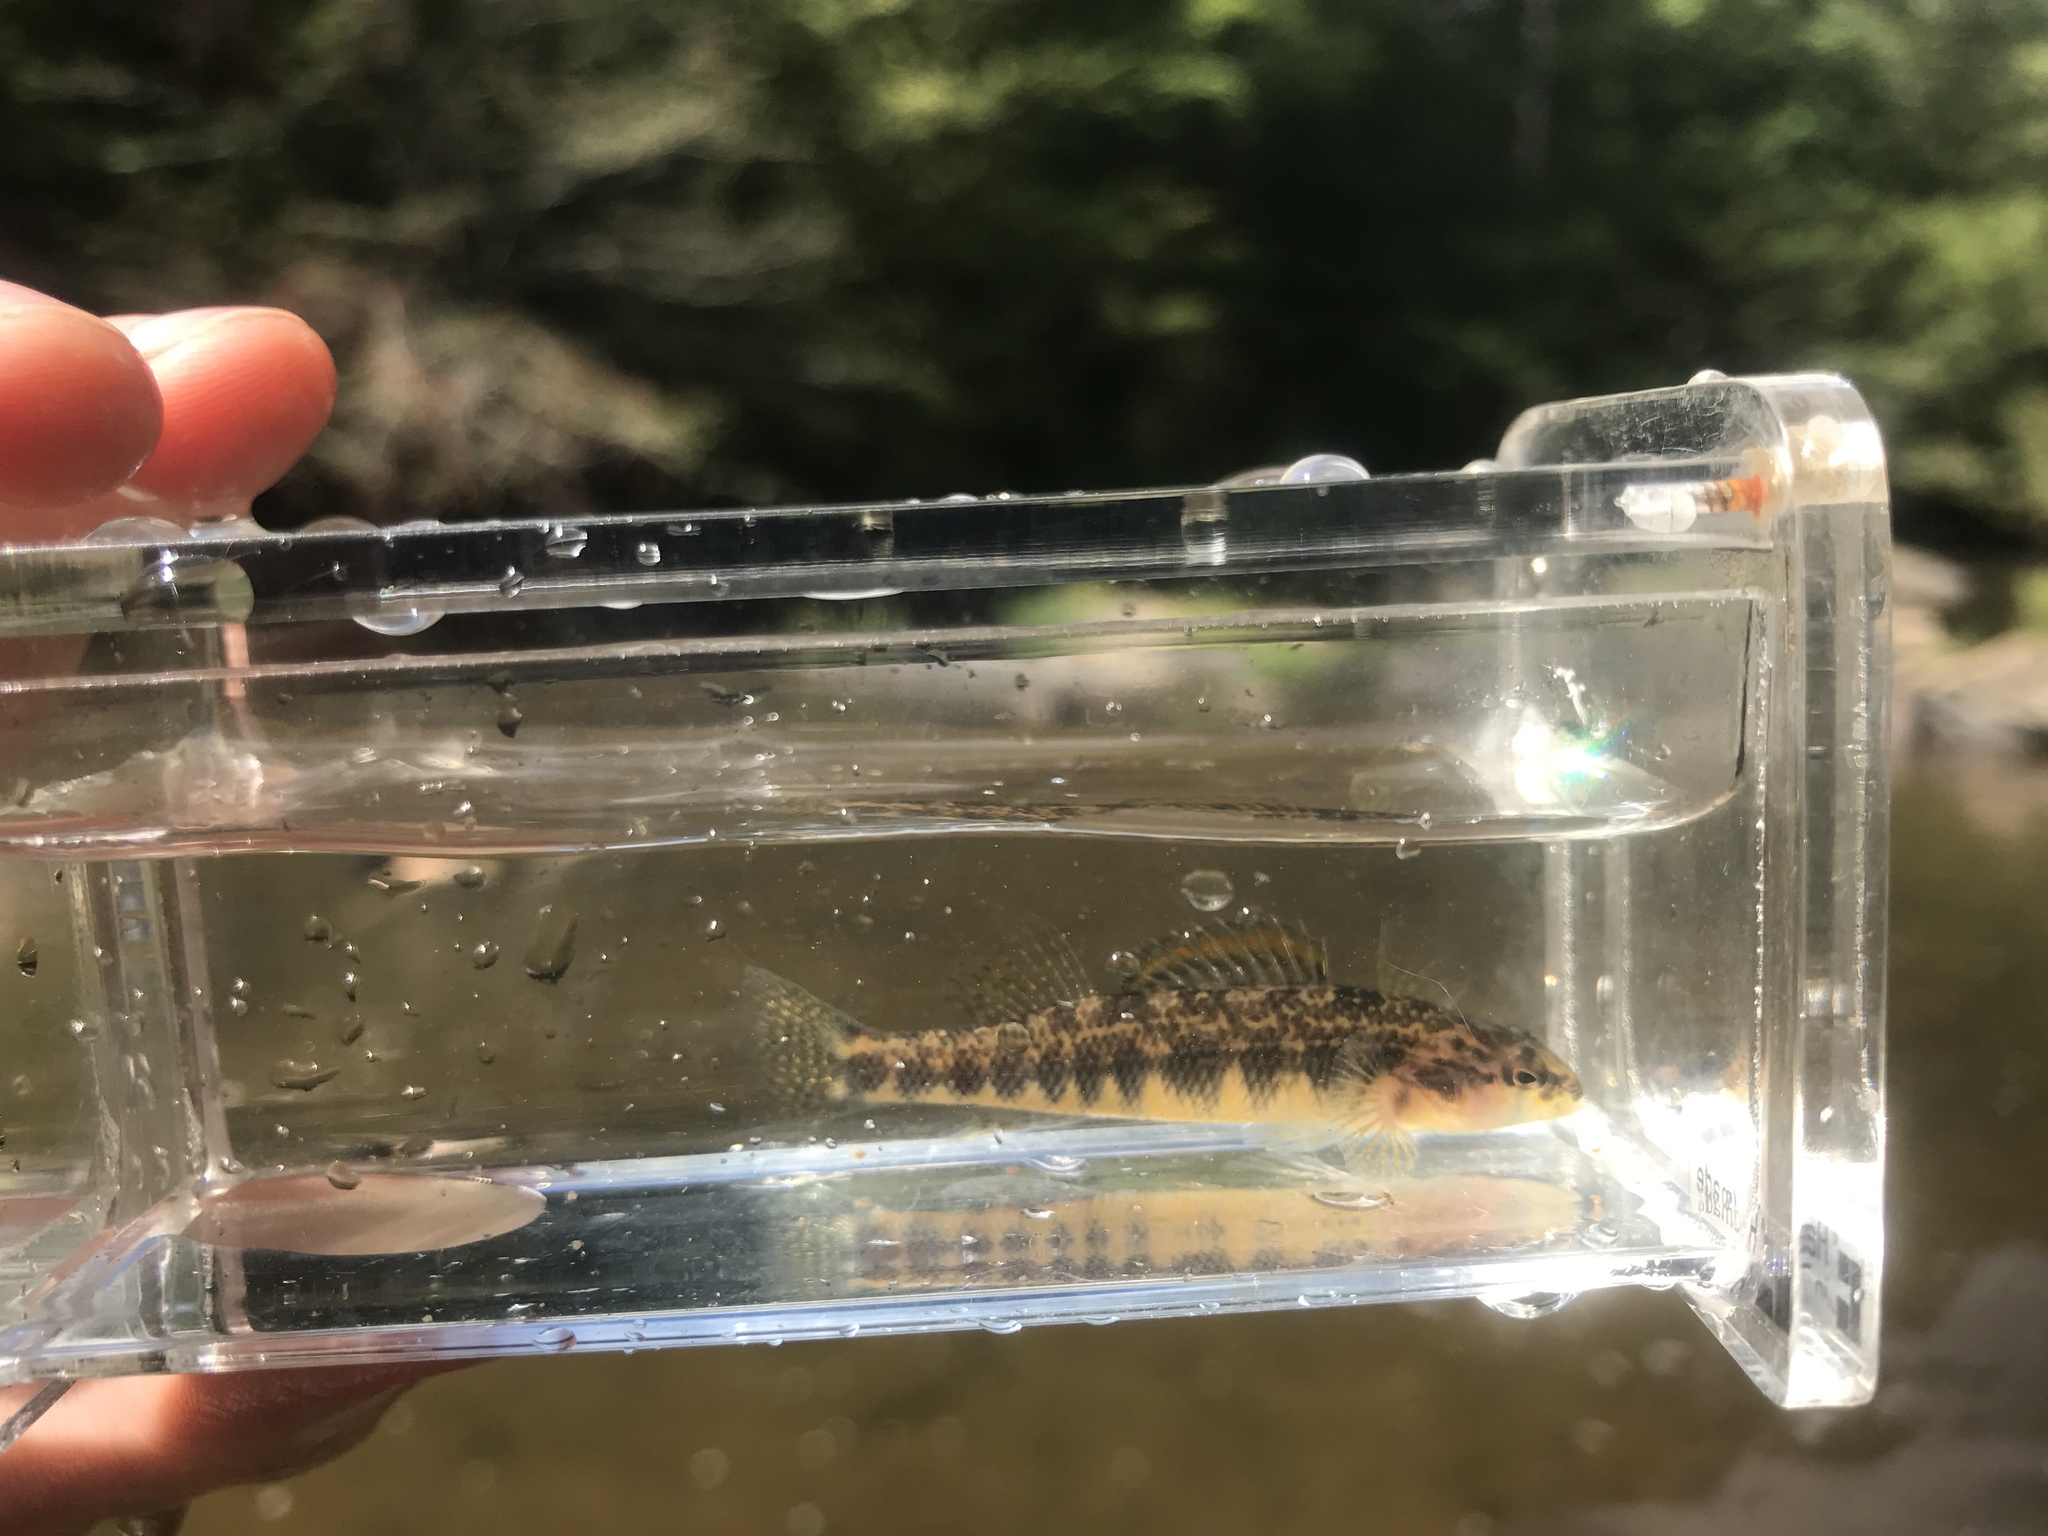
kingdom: Animalia
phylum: Chordata
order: Perciformes
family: Percidae
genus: Percina
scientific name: Percina roanoka
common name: Roanoke darter
